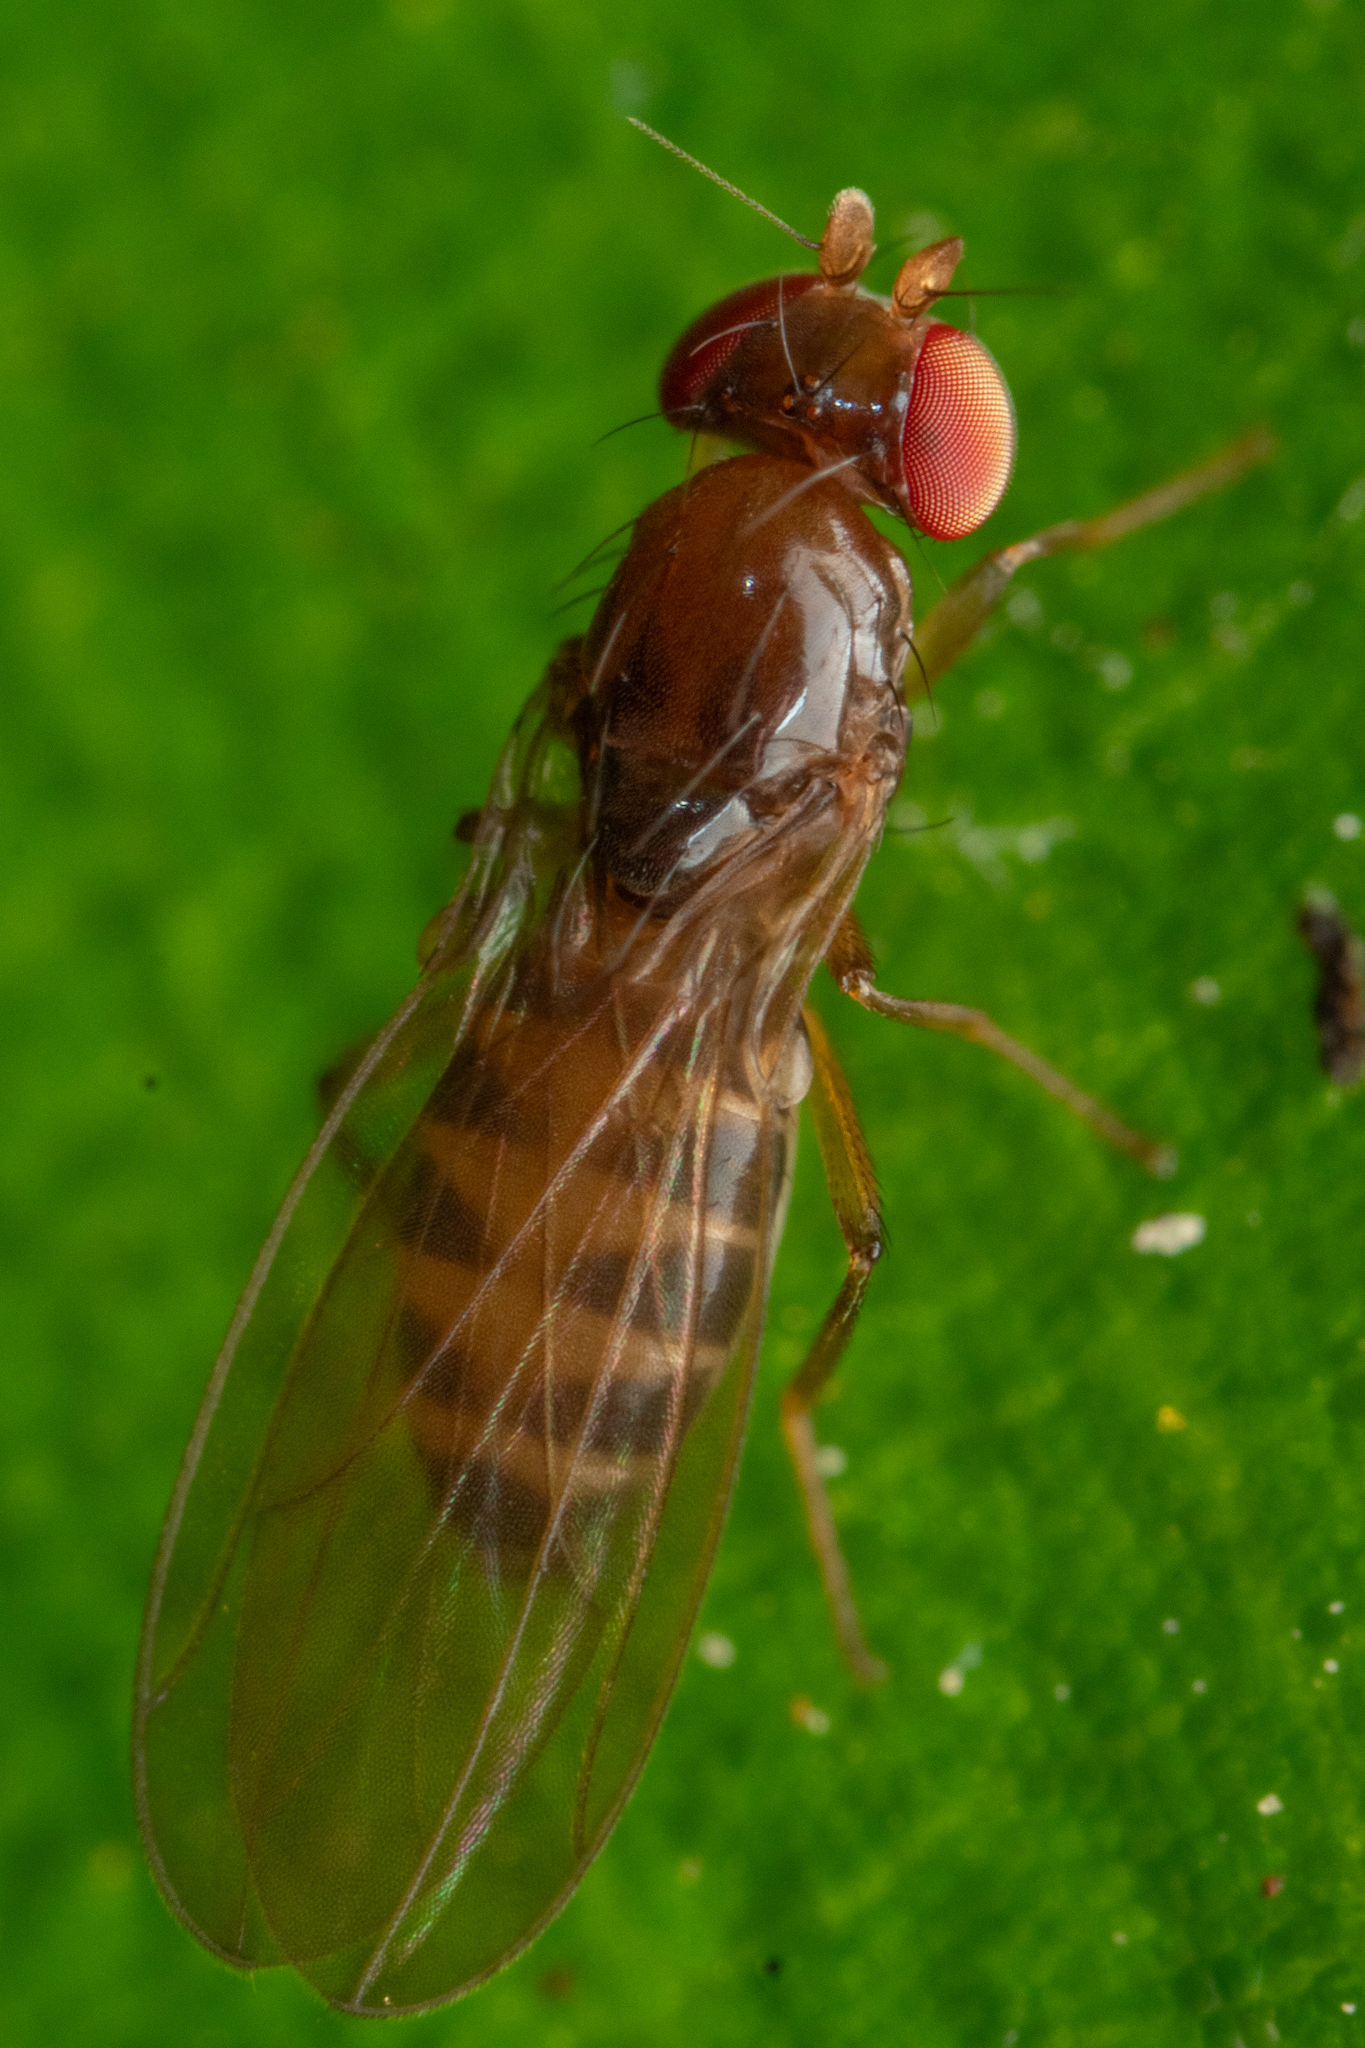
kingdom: Animalia
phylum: Arthropoda
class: Insecta
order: Diptera
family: Teratomyzidae
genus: Teratomyza
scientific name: Teratomyza neozelandica
